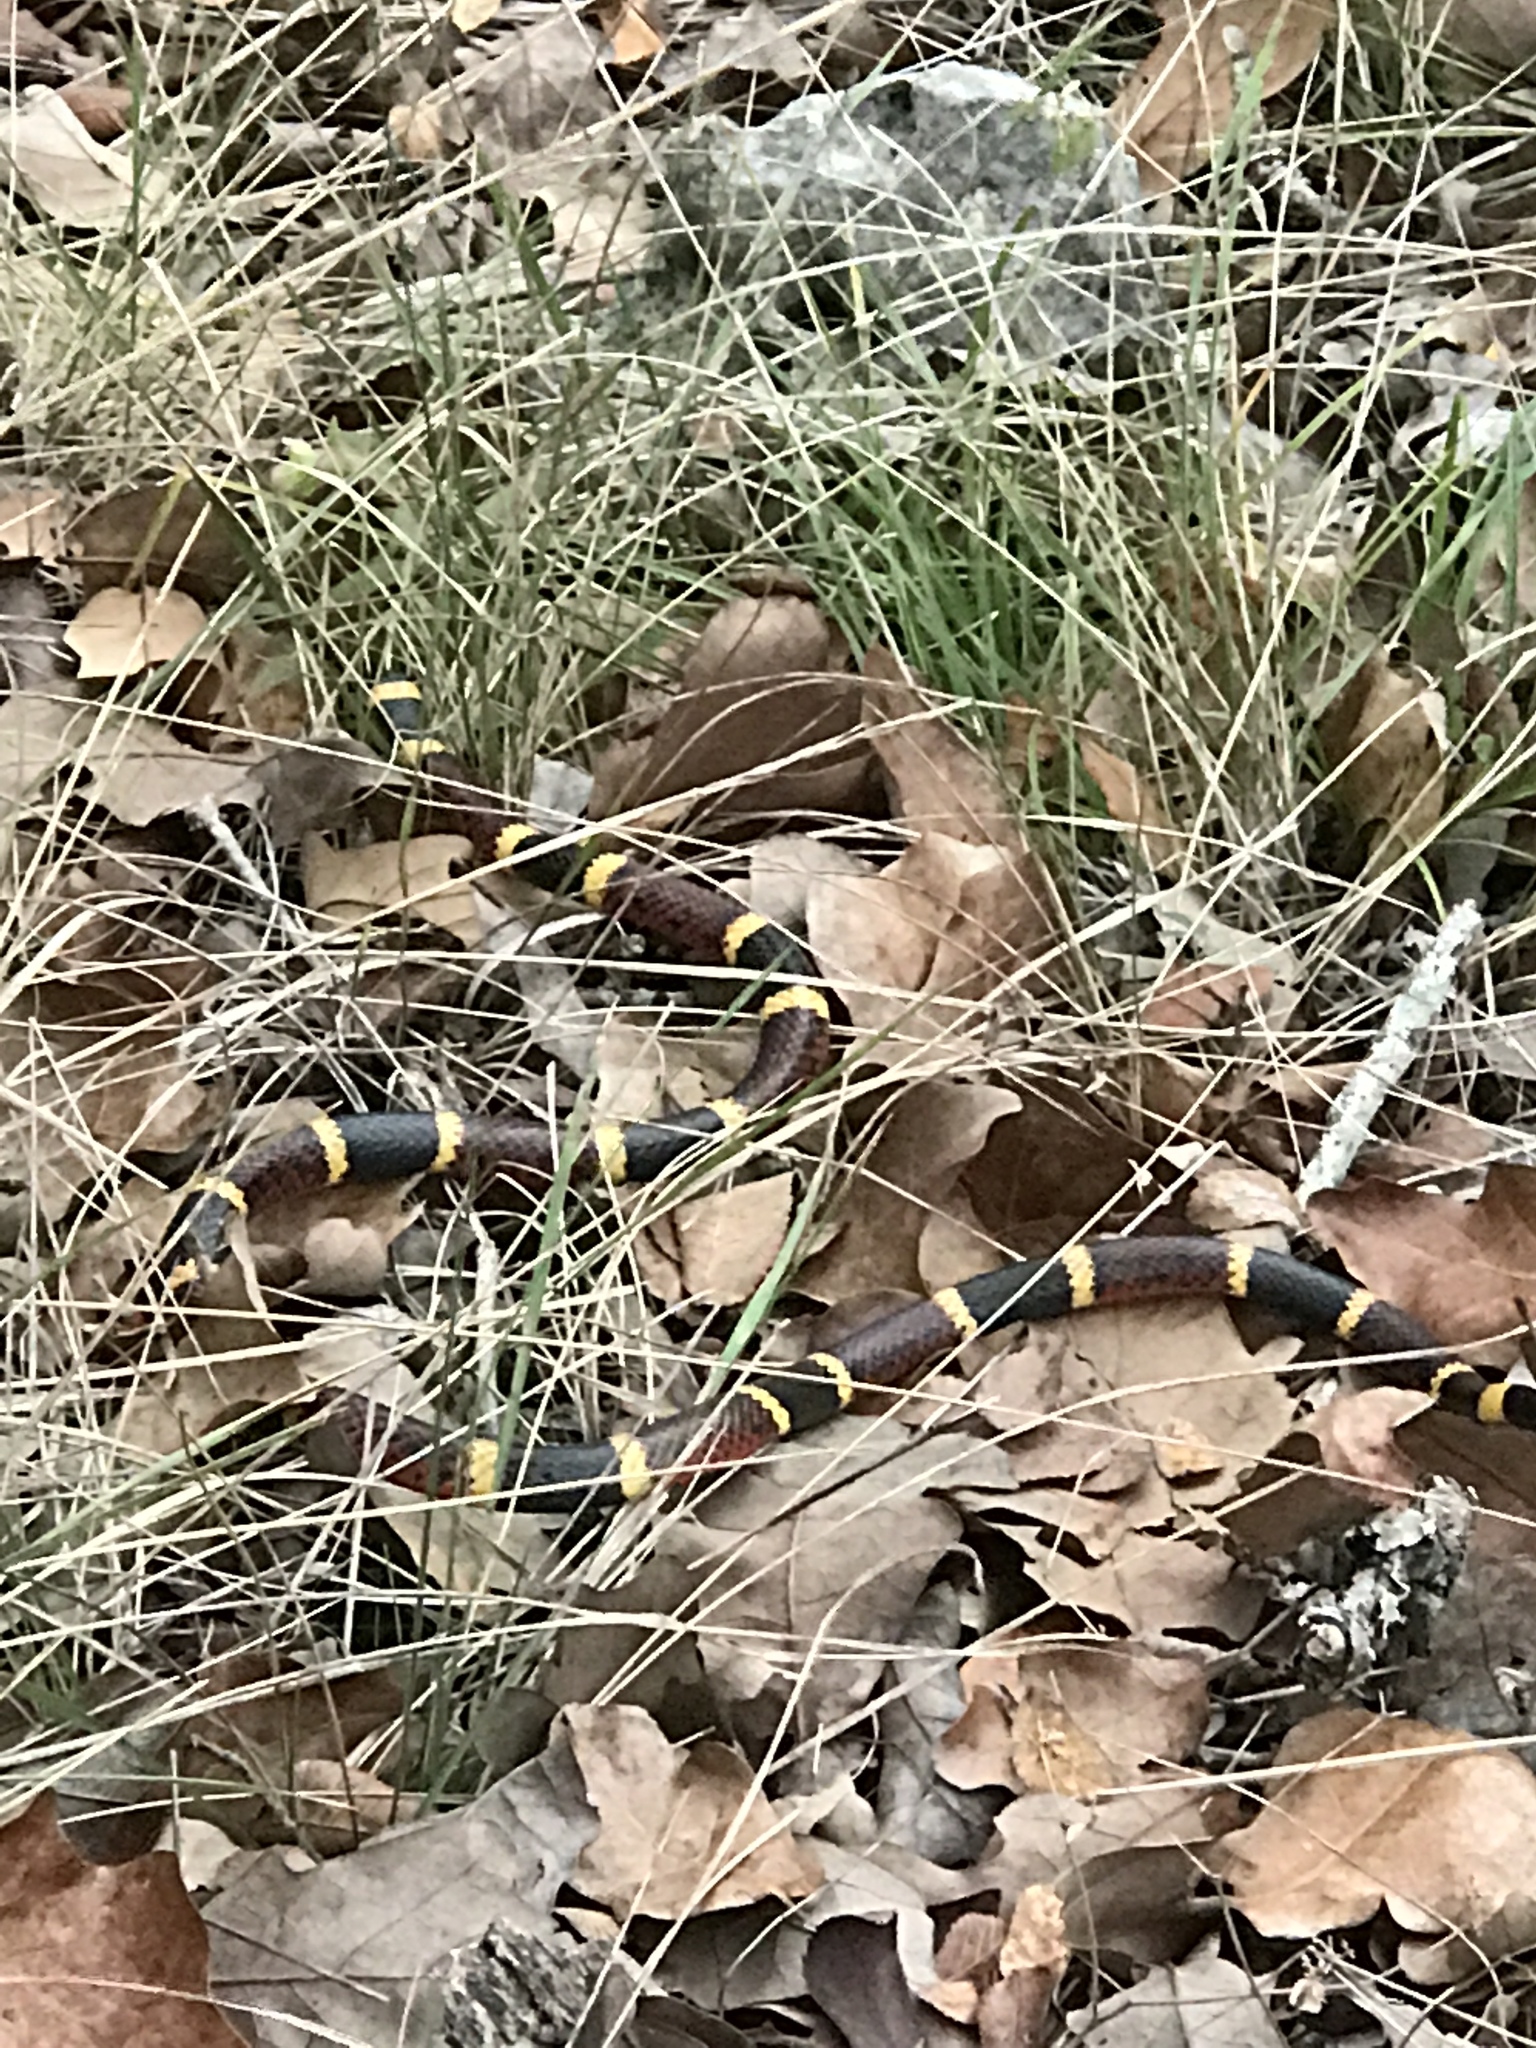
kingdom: Animalia
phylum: Chordata
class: Squamata
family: Elapidae
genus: Micrurus
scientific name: Micrurus tener
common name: Texas coral snake
